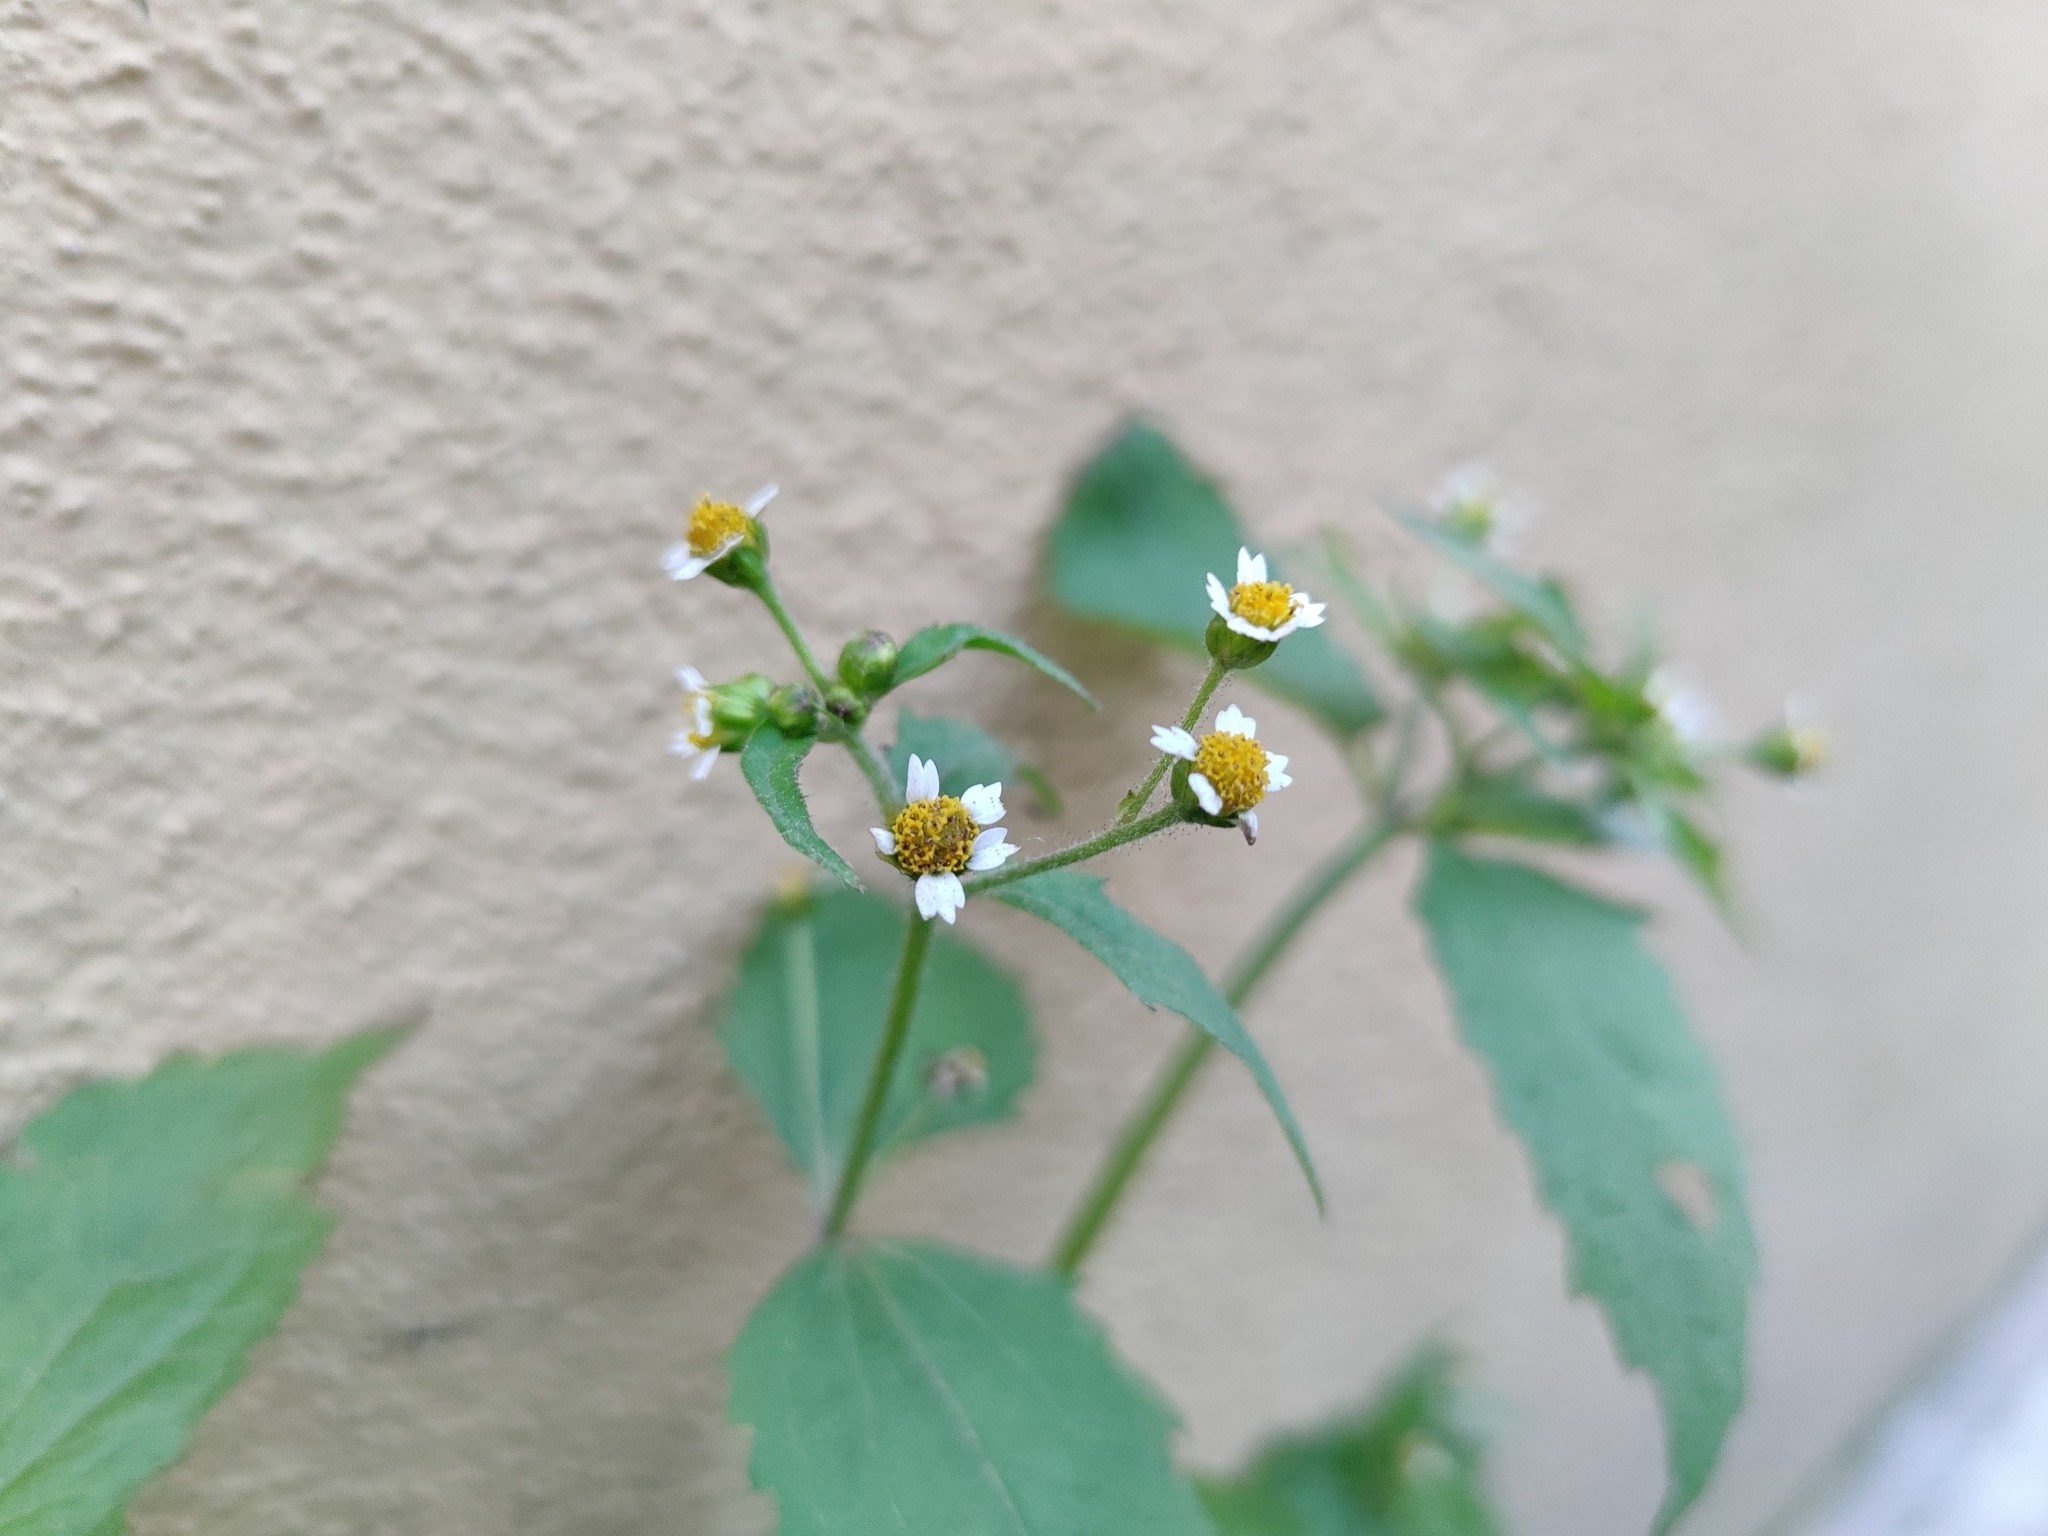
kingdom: Plantae
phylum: Tracheophyta
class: Magnoliopsida
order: Asterales
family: Asteraceae
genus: Galinsoga
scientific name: Galinsoga quadriradiata
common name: Shaggy soldier
